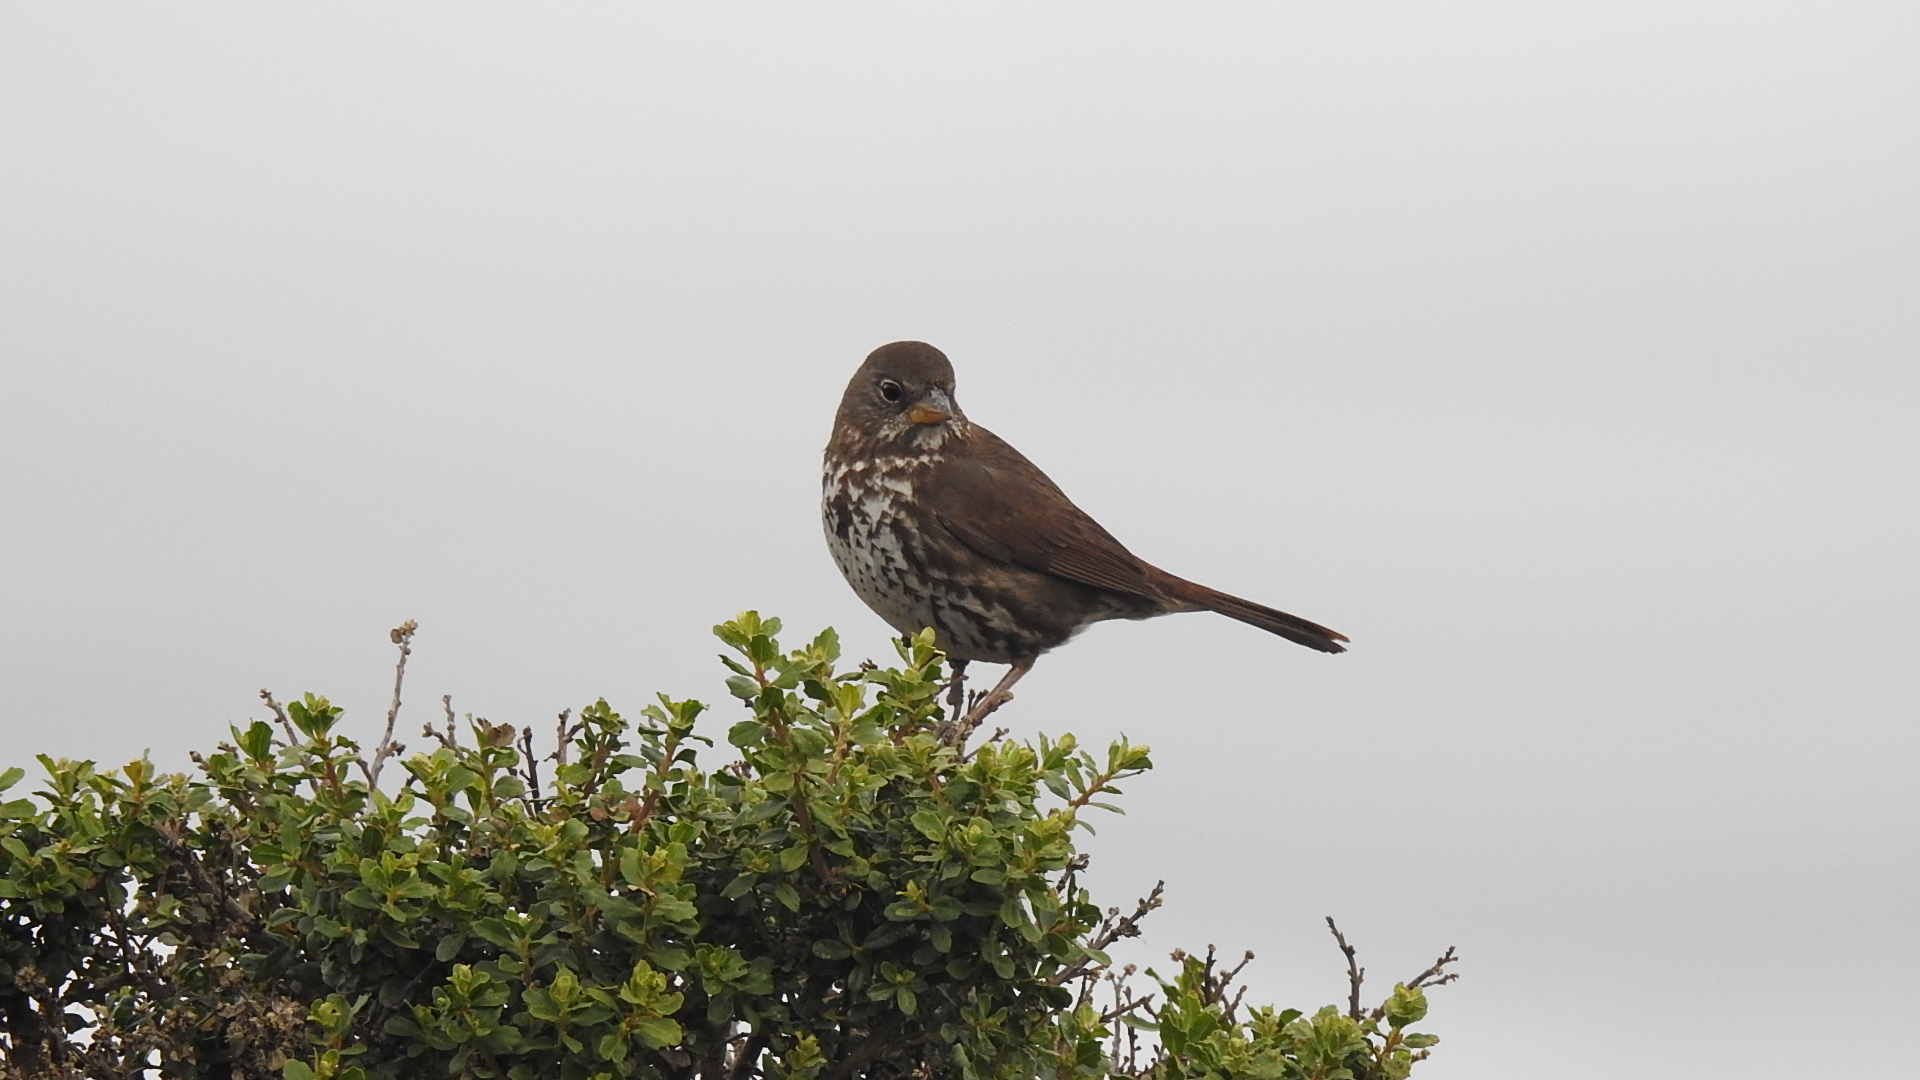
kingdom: Animalia
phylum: Chordata
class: Aves
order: Passeriformes
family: Passerellidae
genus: Passerella
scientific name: Passerella iliaca
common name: Fox sparrow
